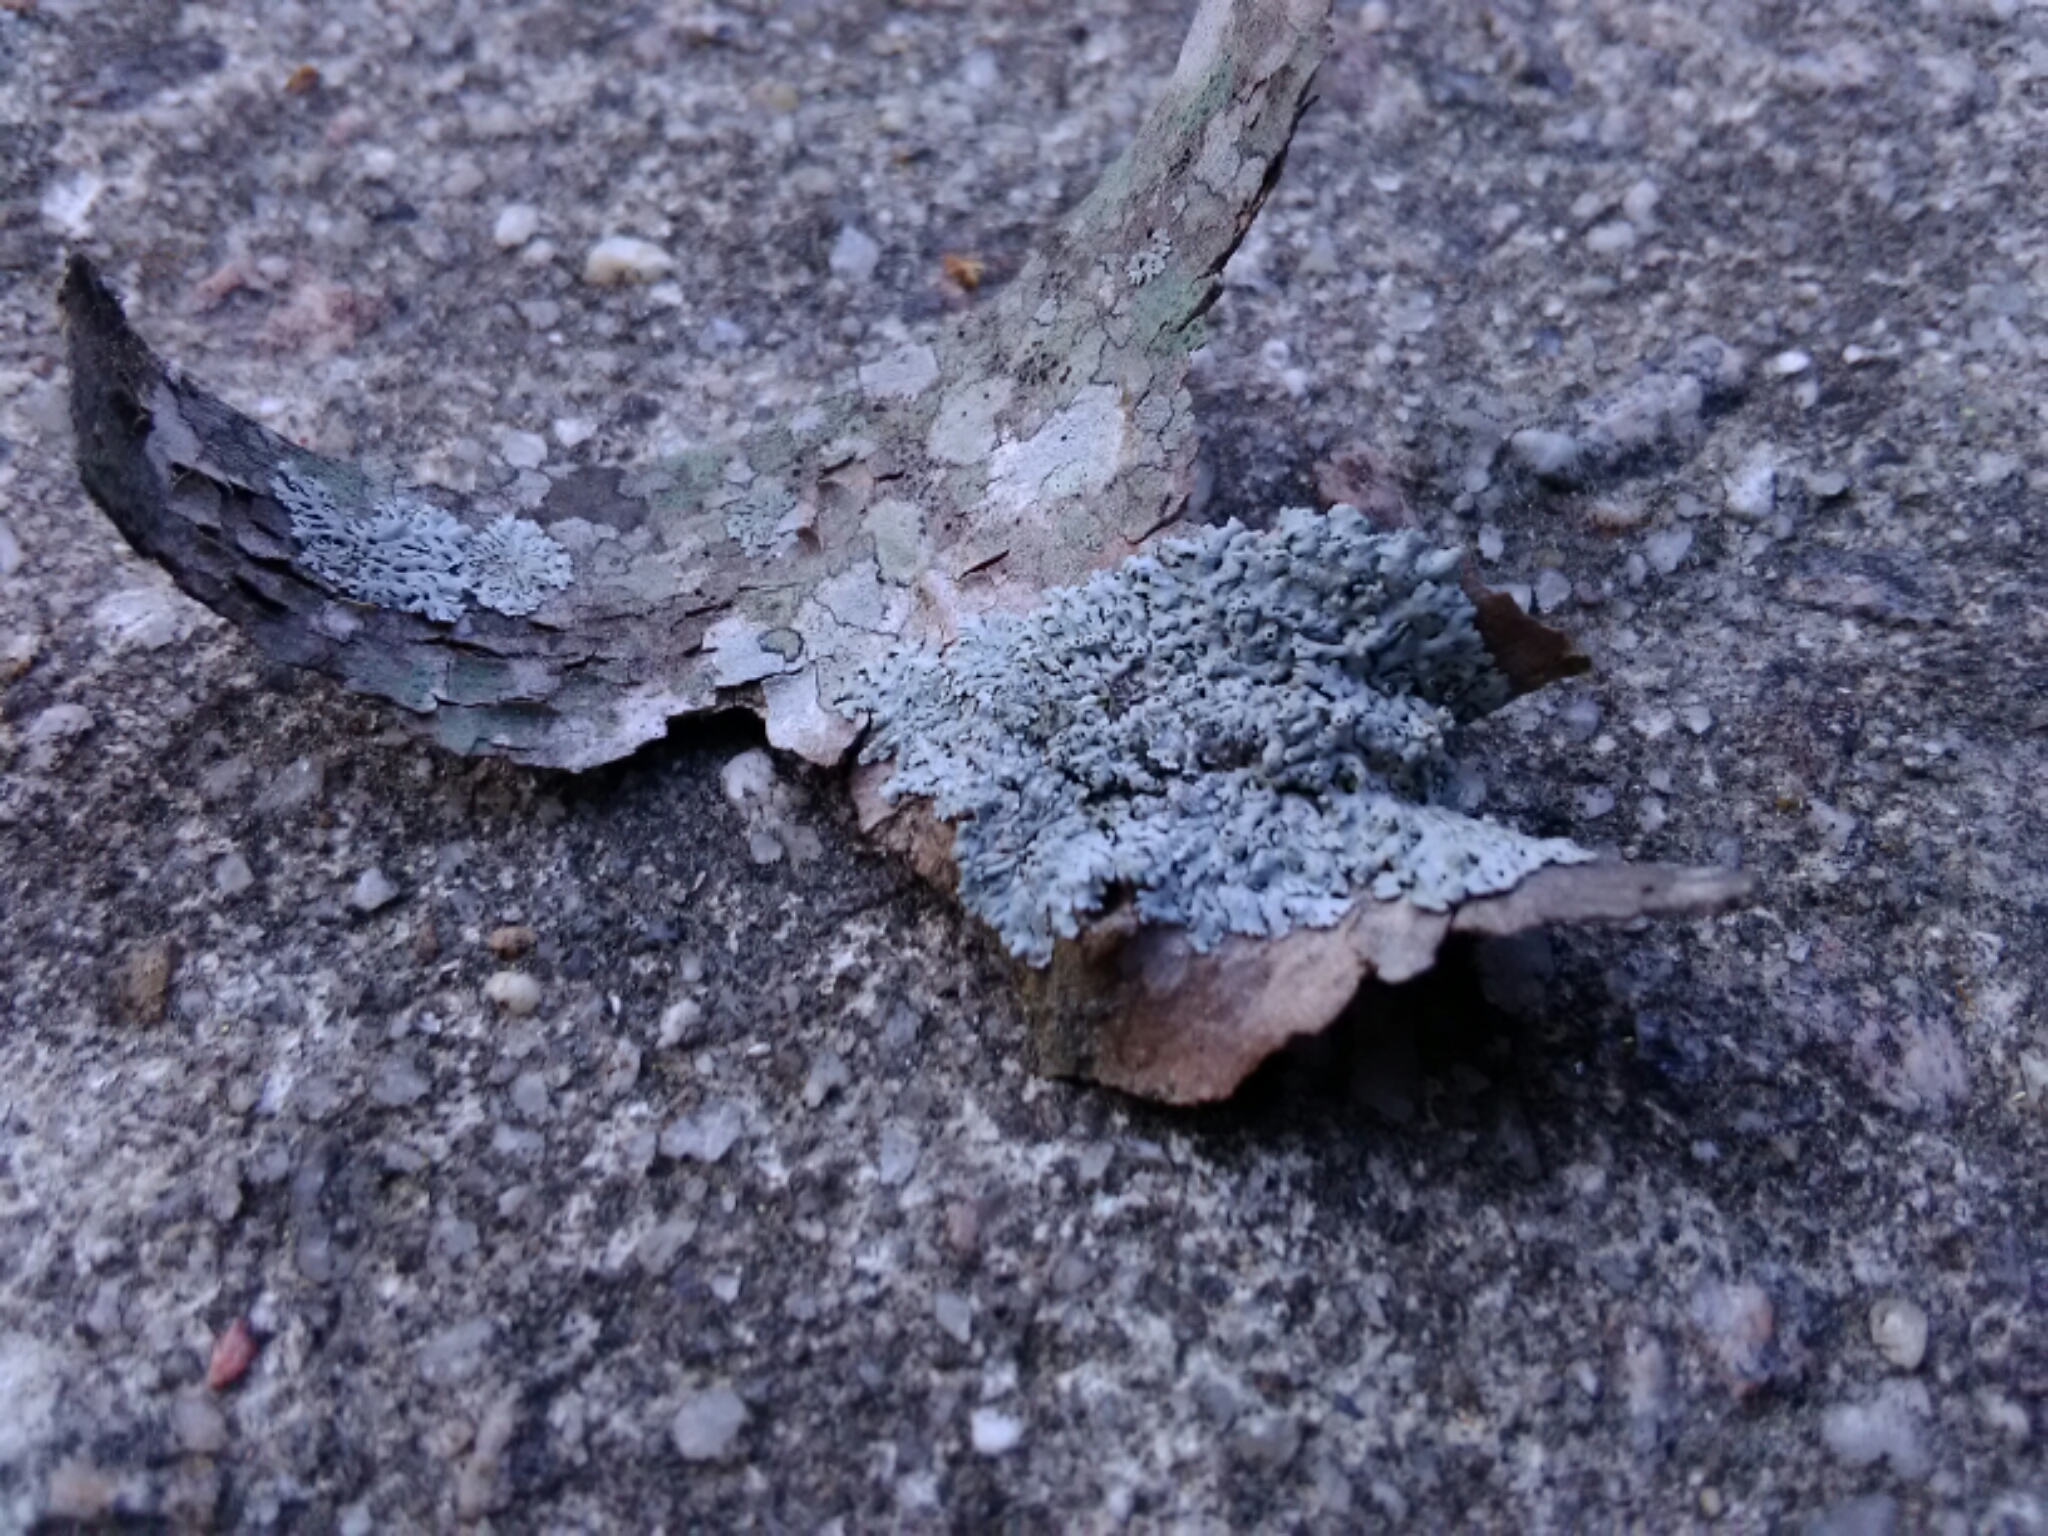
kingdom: Fungi
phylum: Ascomycota
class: Lecanoromycetes
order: Caliciales
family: Physciaceae
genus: Physcia
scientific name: Physcia stellaris
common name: Star rosette lichen
